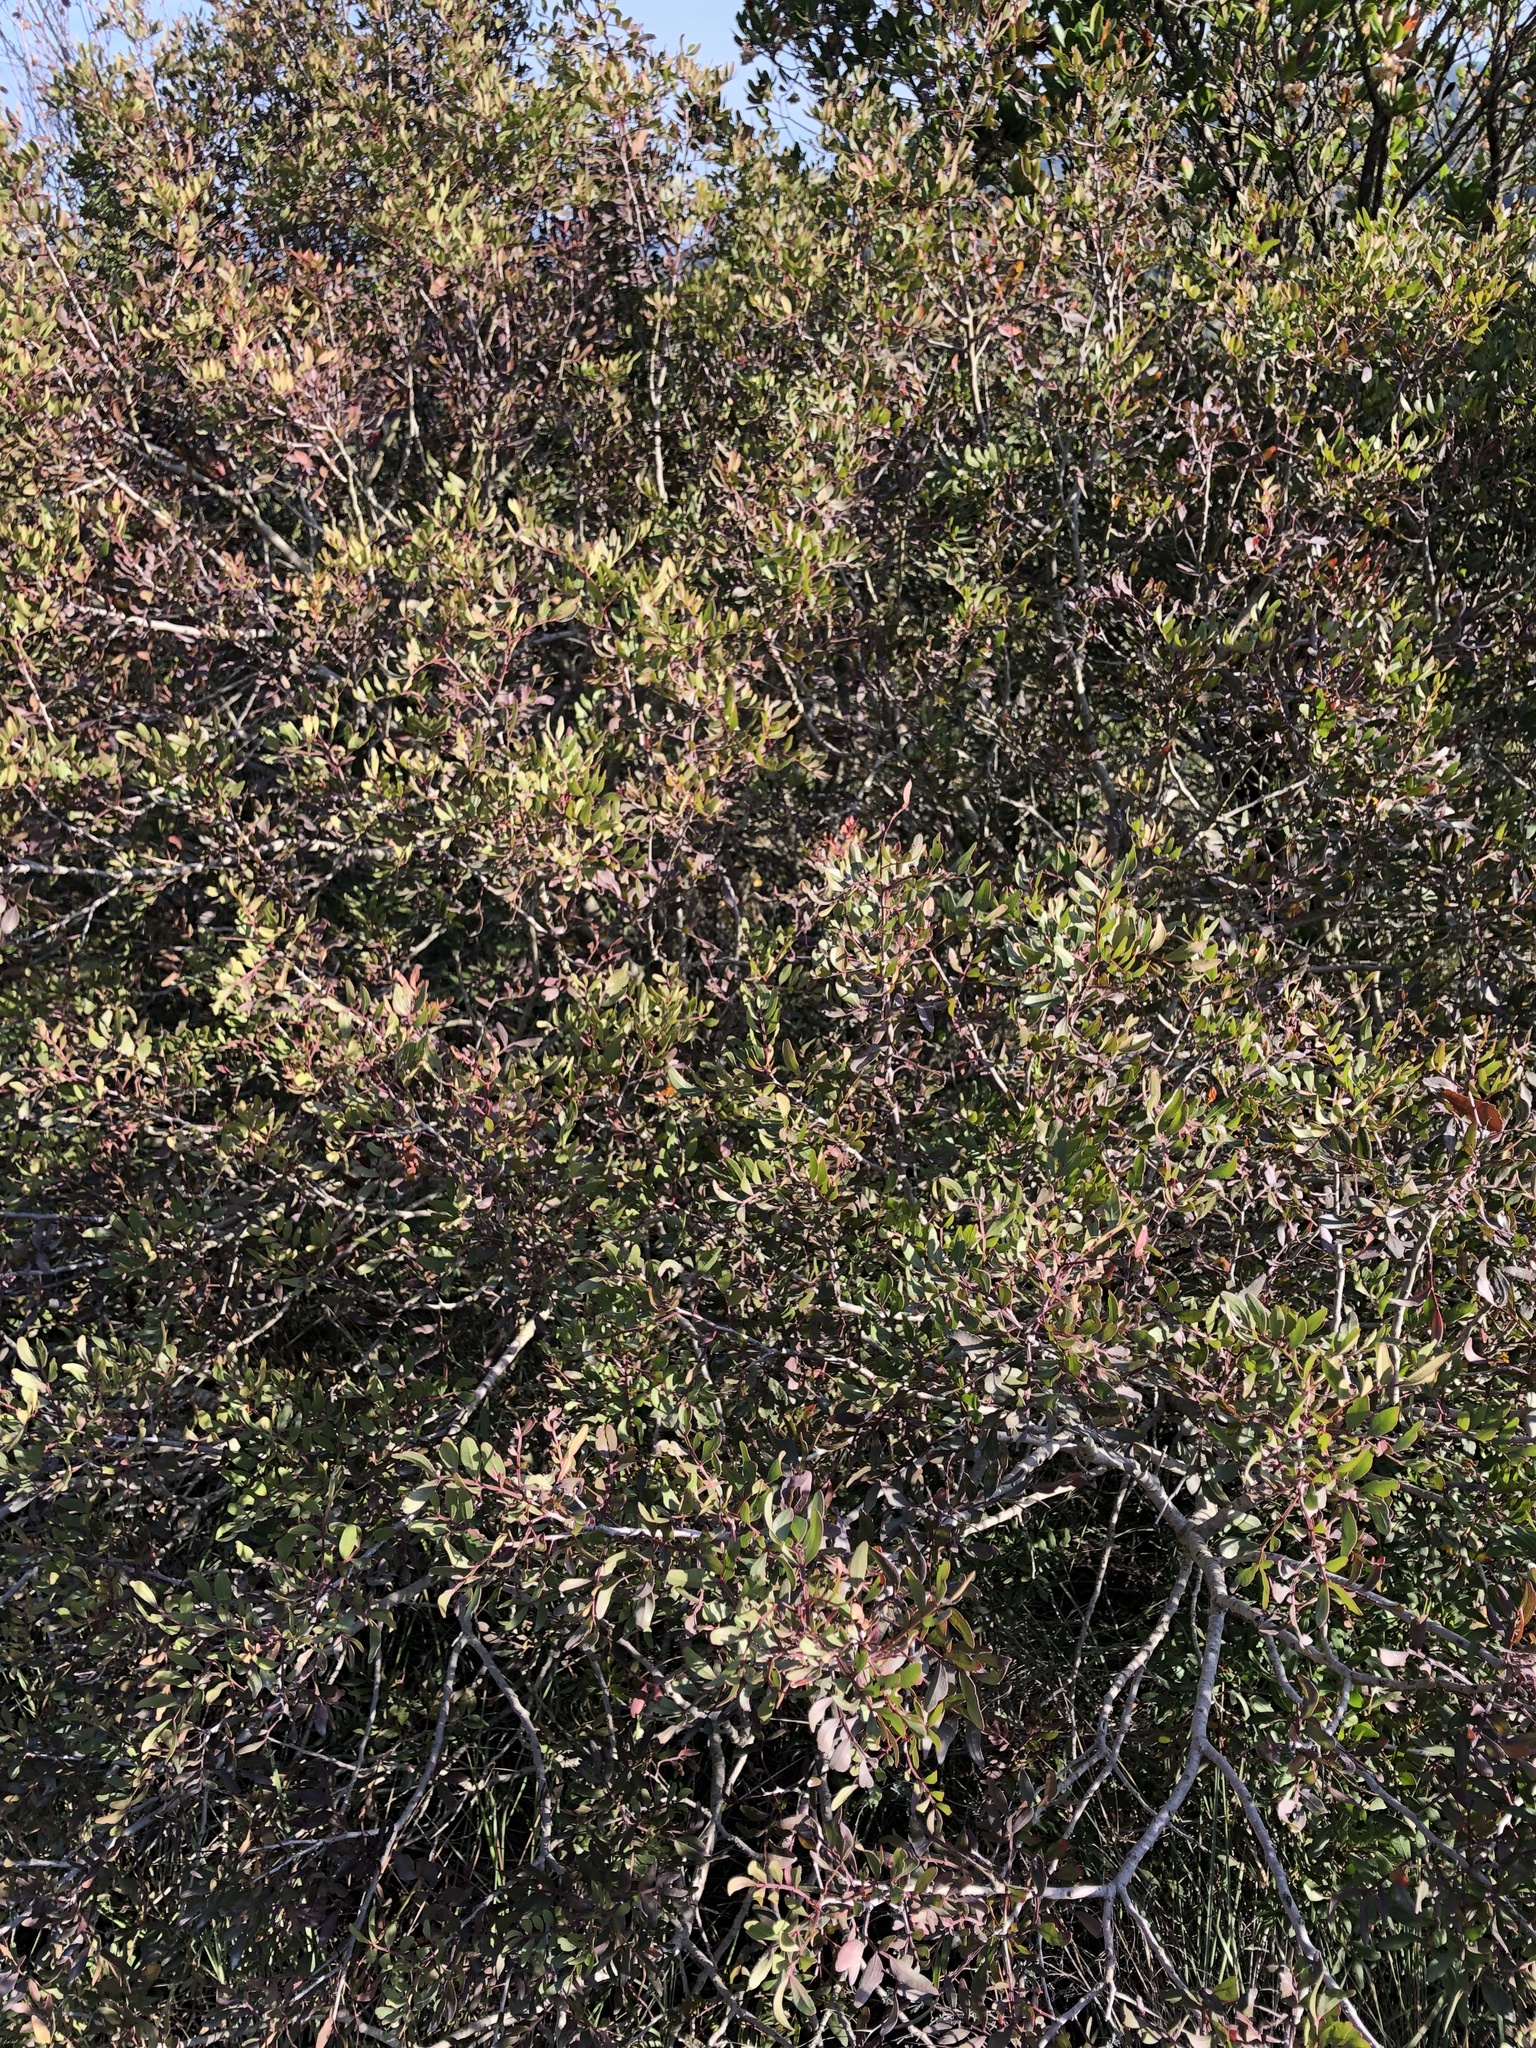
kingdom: Plantae
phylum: Tracheophyta
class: Magnoliopsida
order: Sapindales
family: Anacardiaceae
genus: Pistacia
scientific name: Pistacia lentiscus
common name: Lentisk
